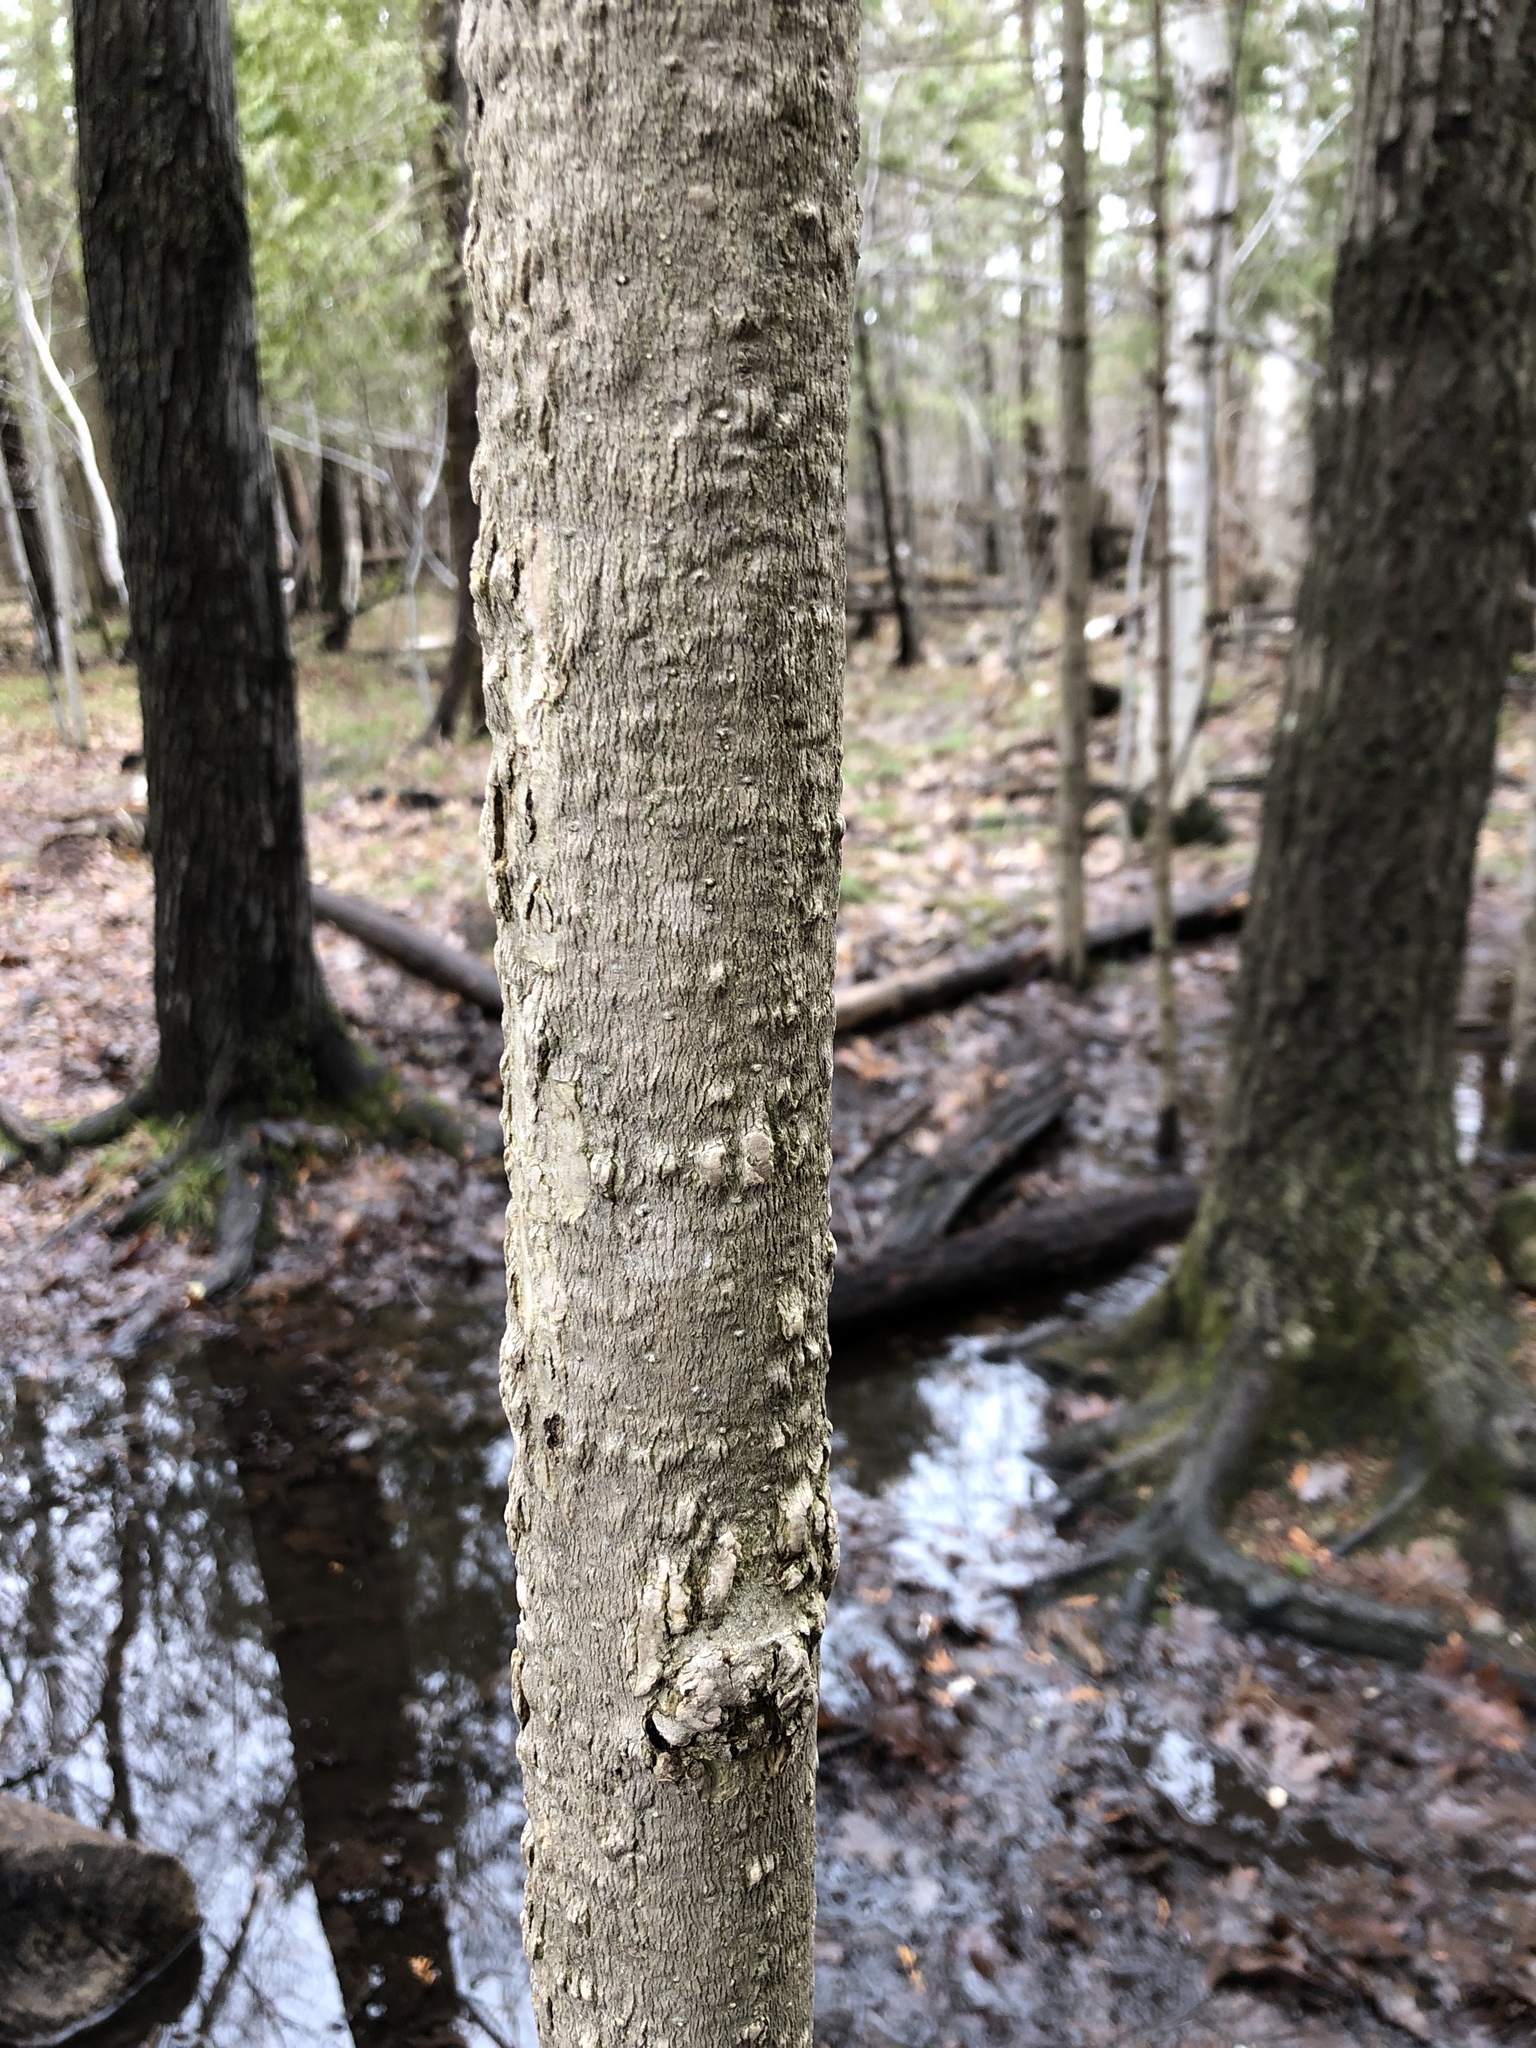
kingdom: Plantae
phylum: Tracheophyta
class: Magnoliopsida
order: Lamiales
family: Oleaceae
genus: Fraxinus
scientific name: Fraxinus nigra
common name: Black ash
